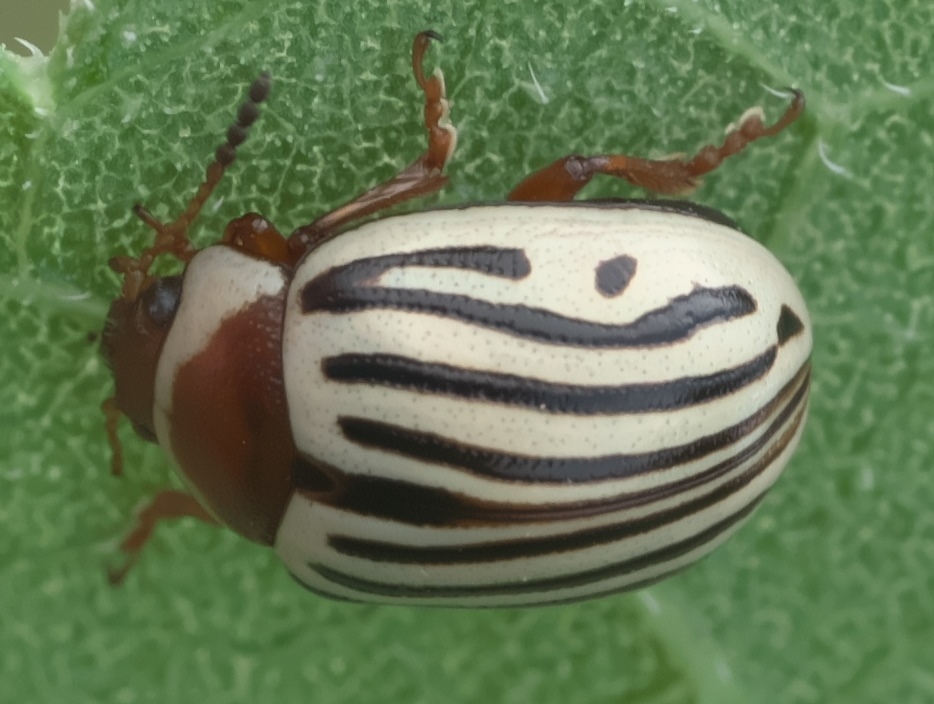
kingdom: Animalia
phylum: Arthropoda
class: Insecta
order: Coleoptera
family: Chrysomelidae
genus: Calligrapha
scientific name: Calligrapha
